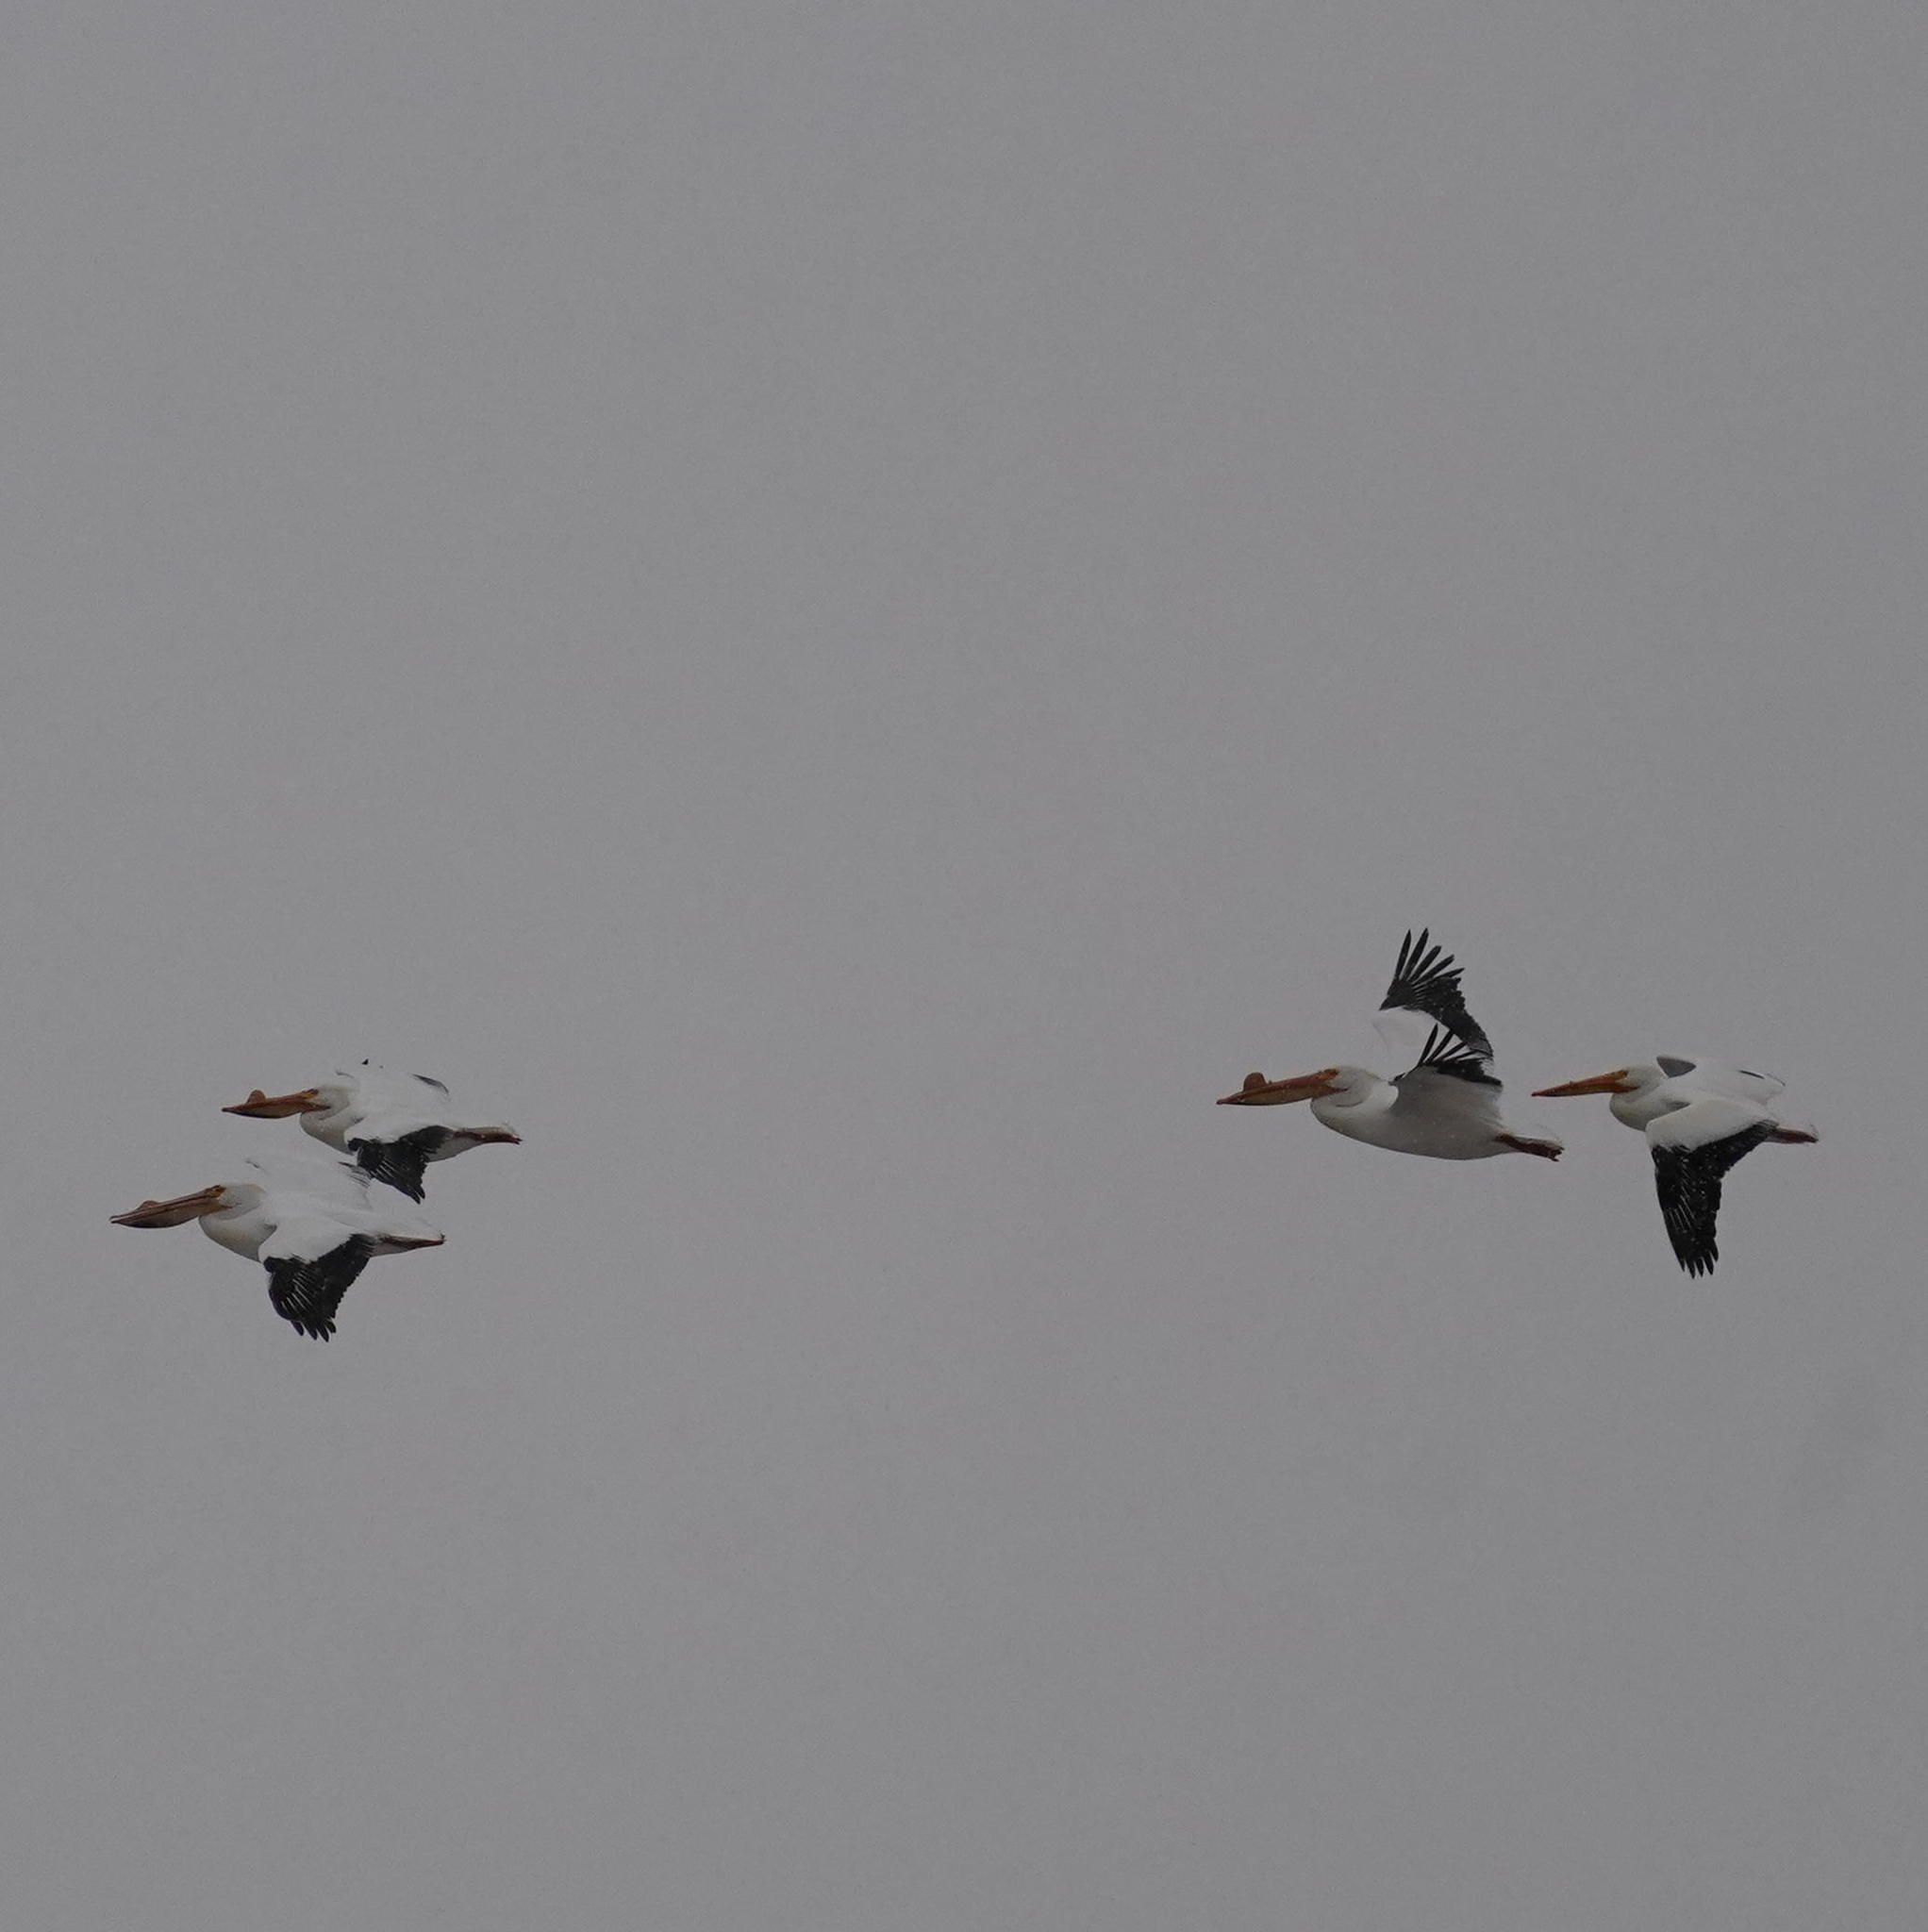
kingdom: Animalia
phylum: Chordata
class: Aves
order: Pelecaniformes
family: Pelecanidae
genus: Pelecanus
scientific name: Pelecanus erythrorhynchos
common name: American white pelican
